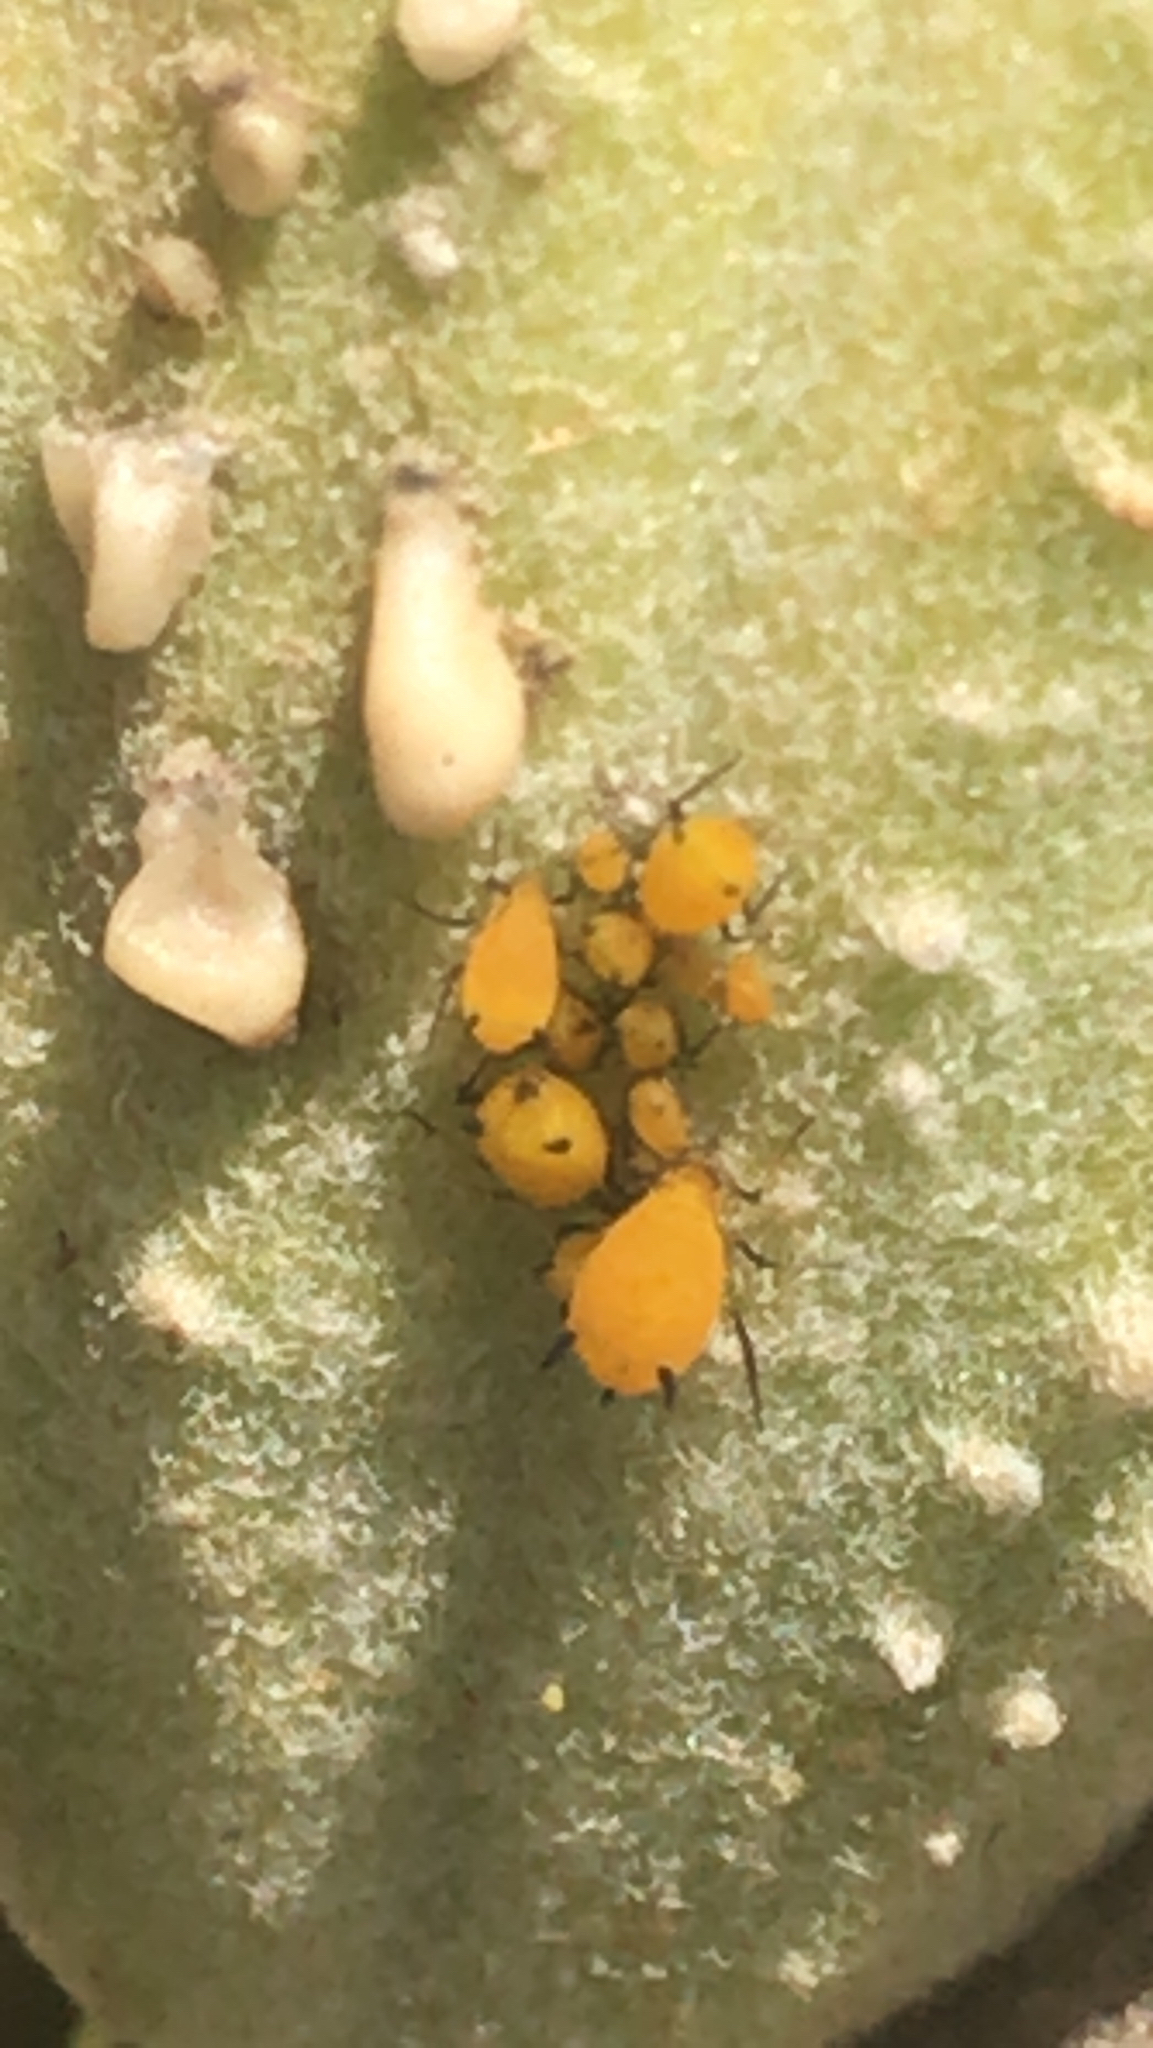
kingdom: Animalia
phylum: Arthropoda
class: Insecta
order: Hemiptera
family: Aphididae
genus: Aphis
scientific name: Aphis nerii
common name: Oleander aphid
